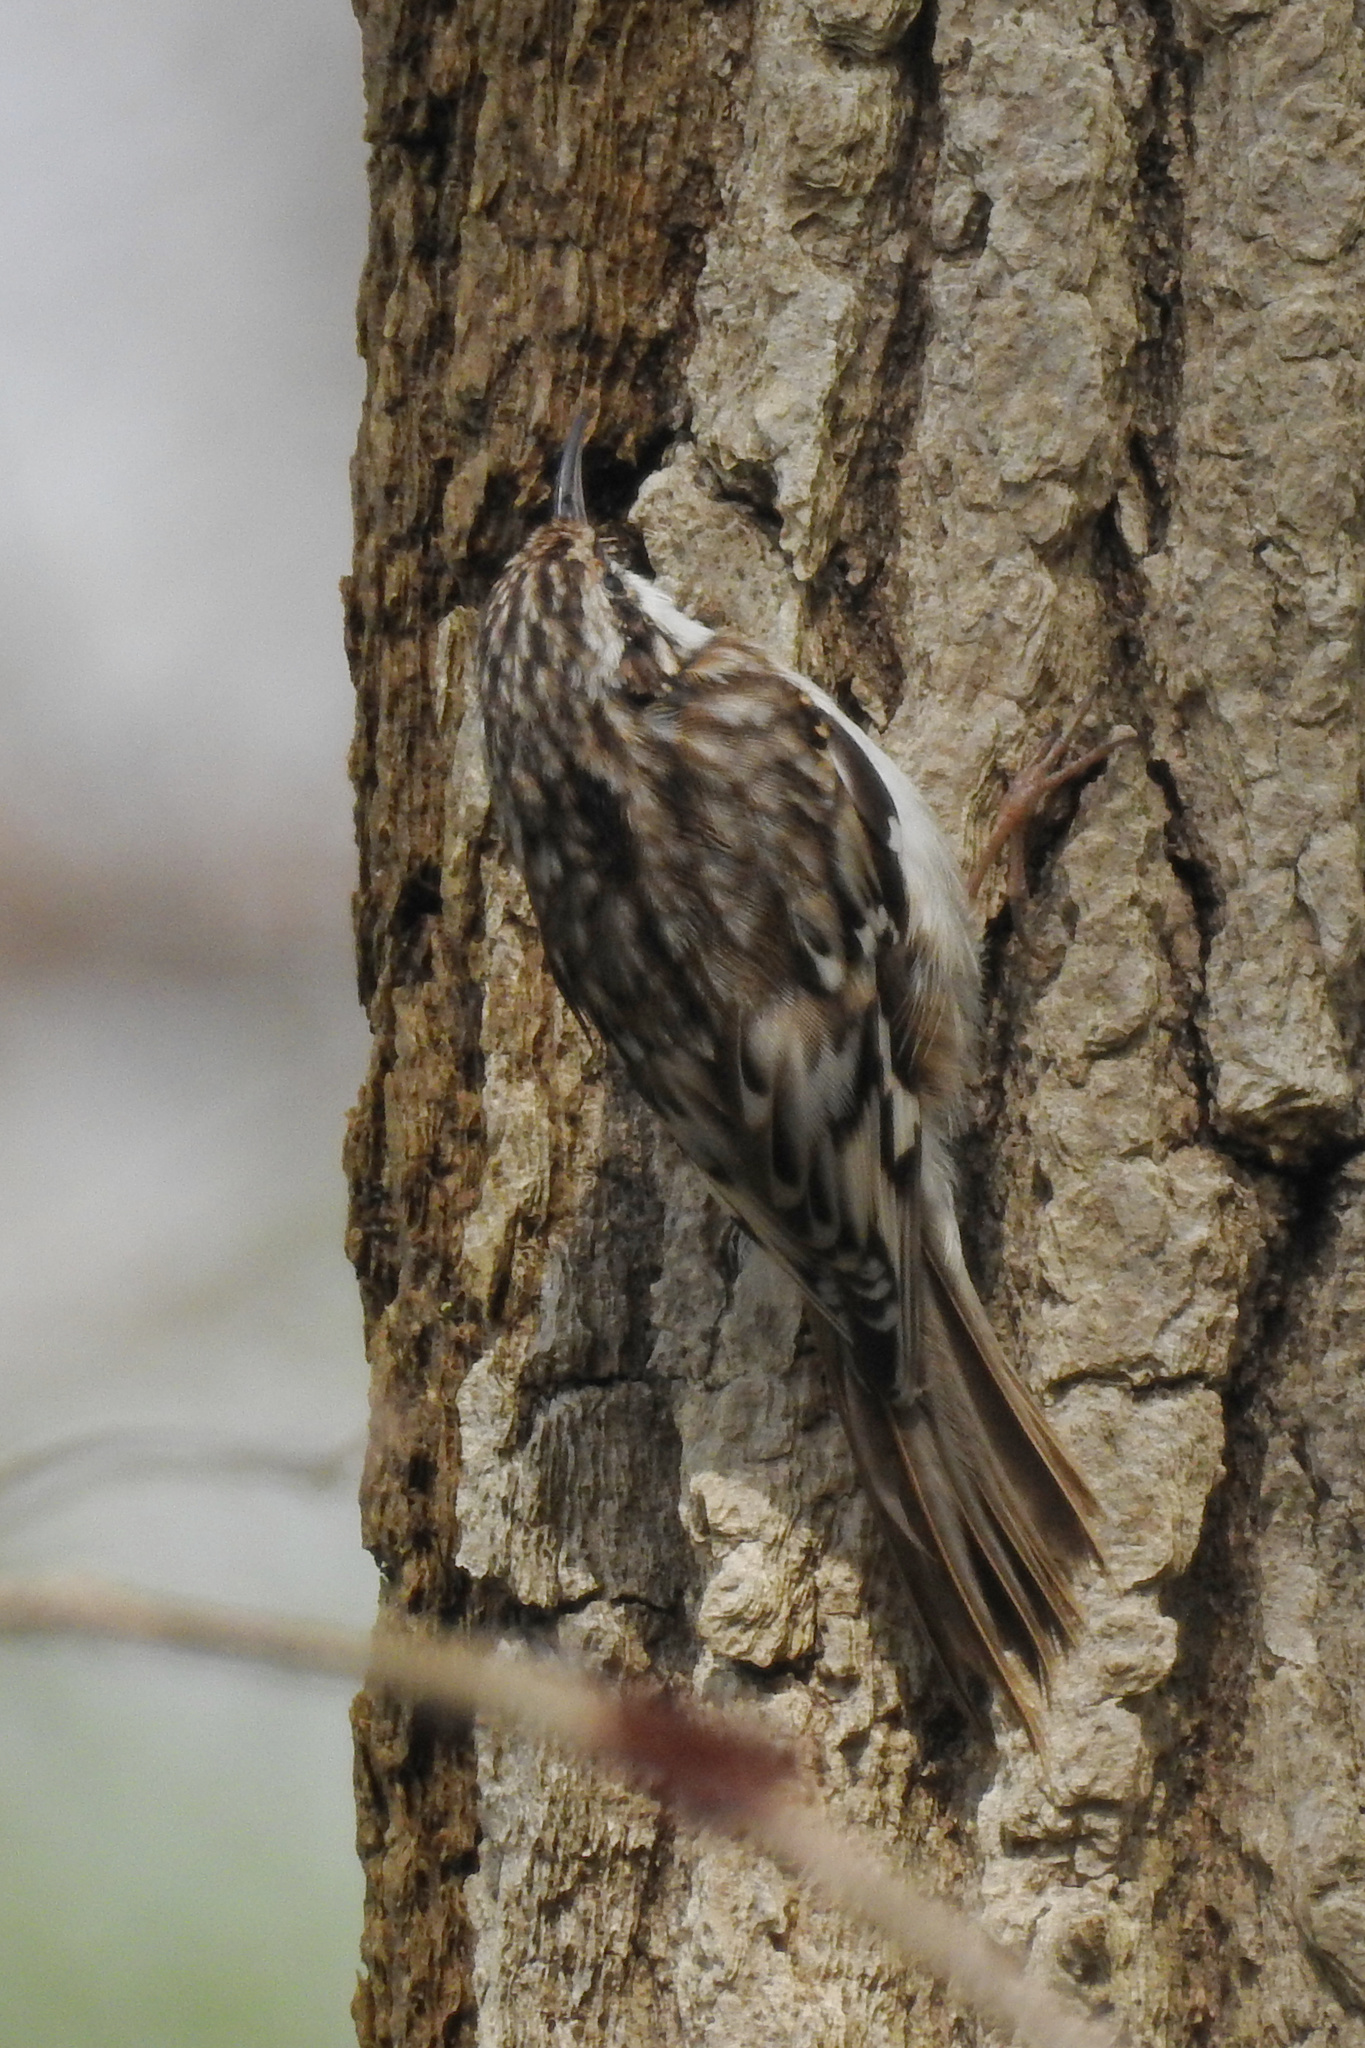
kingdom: Animalia
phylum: Chordata
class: Aves
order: Passeriformes
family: Certhiidae
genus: Certhia
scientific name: Certhia americana
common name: Brown creeper
